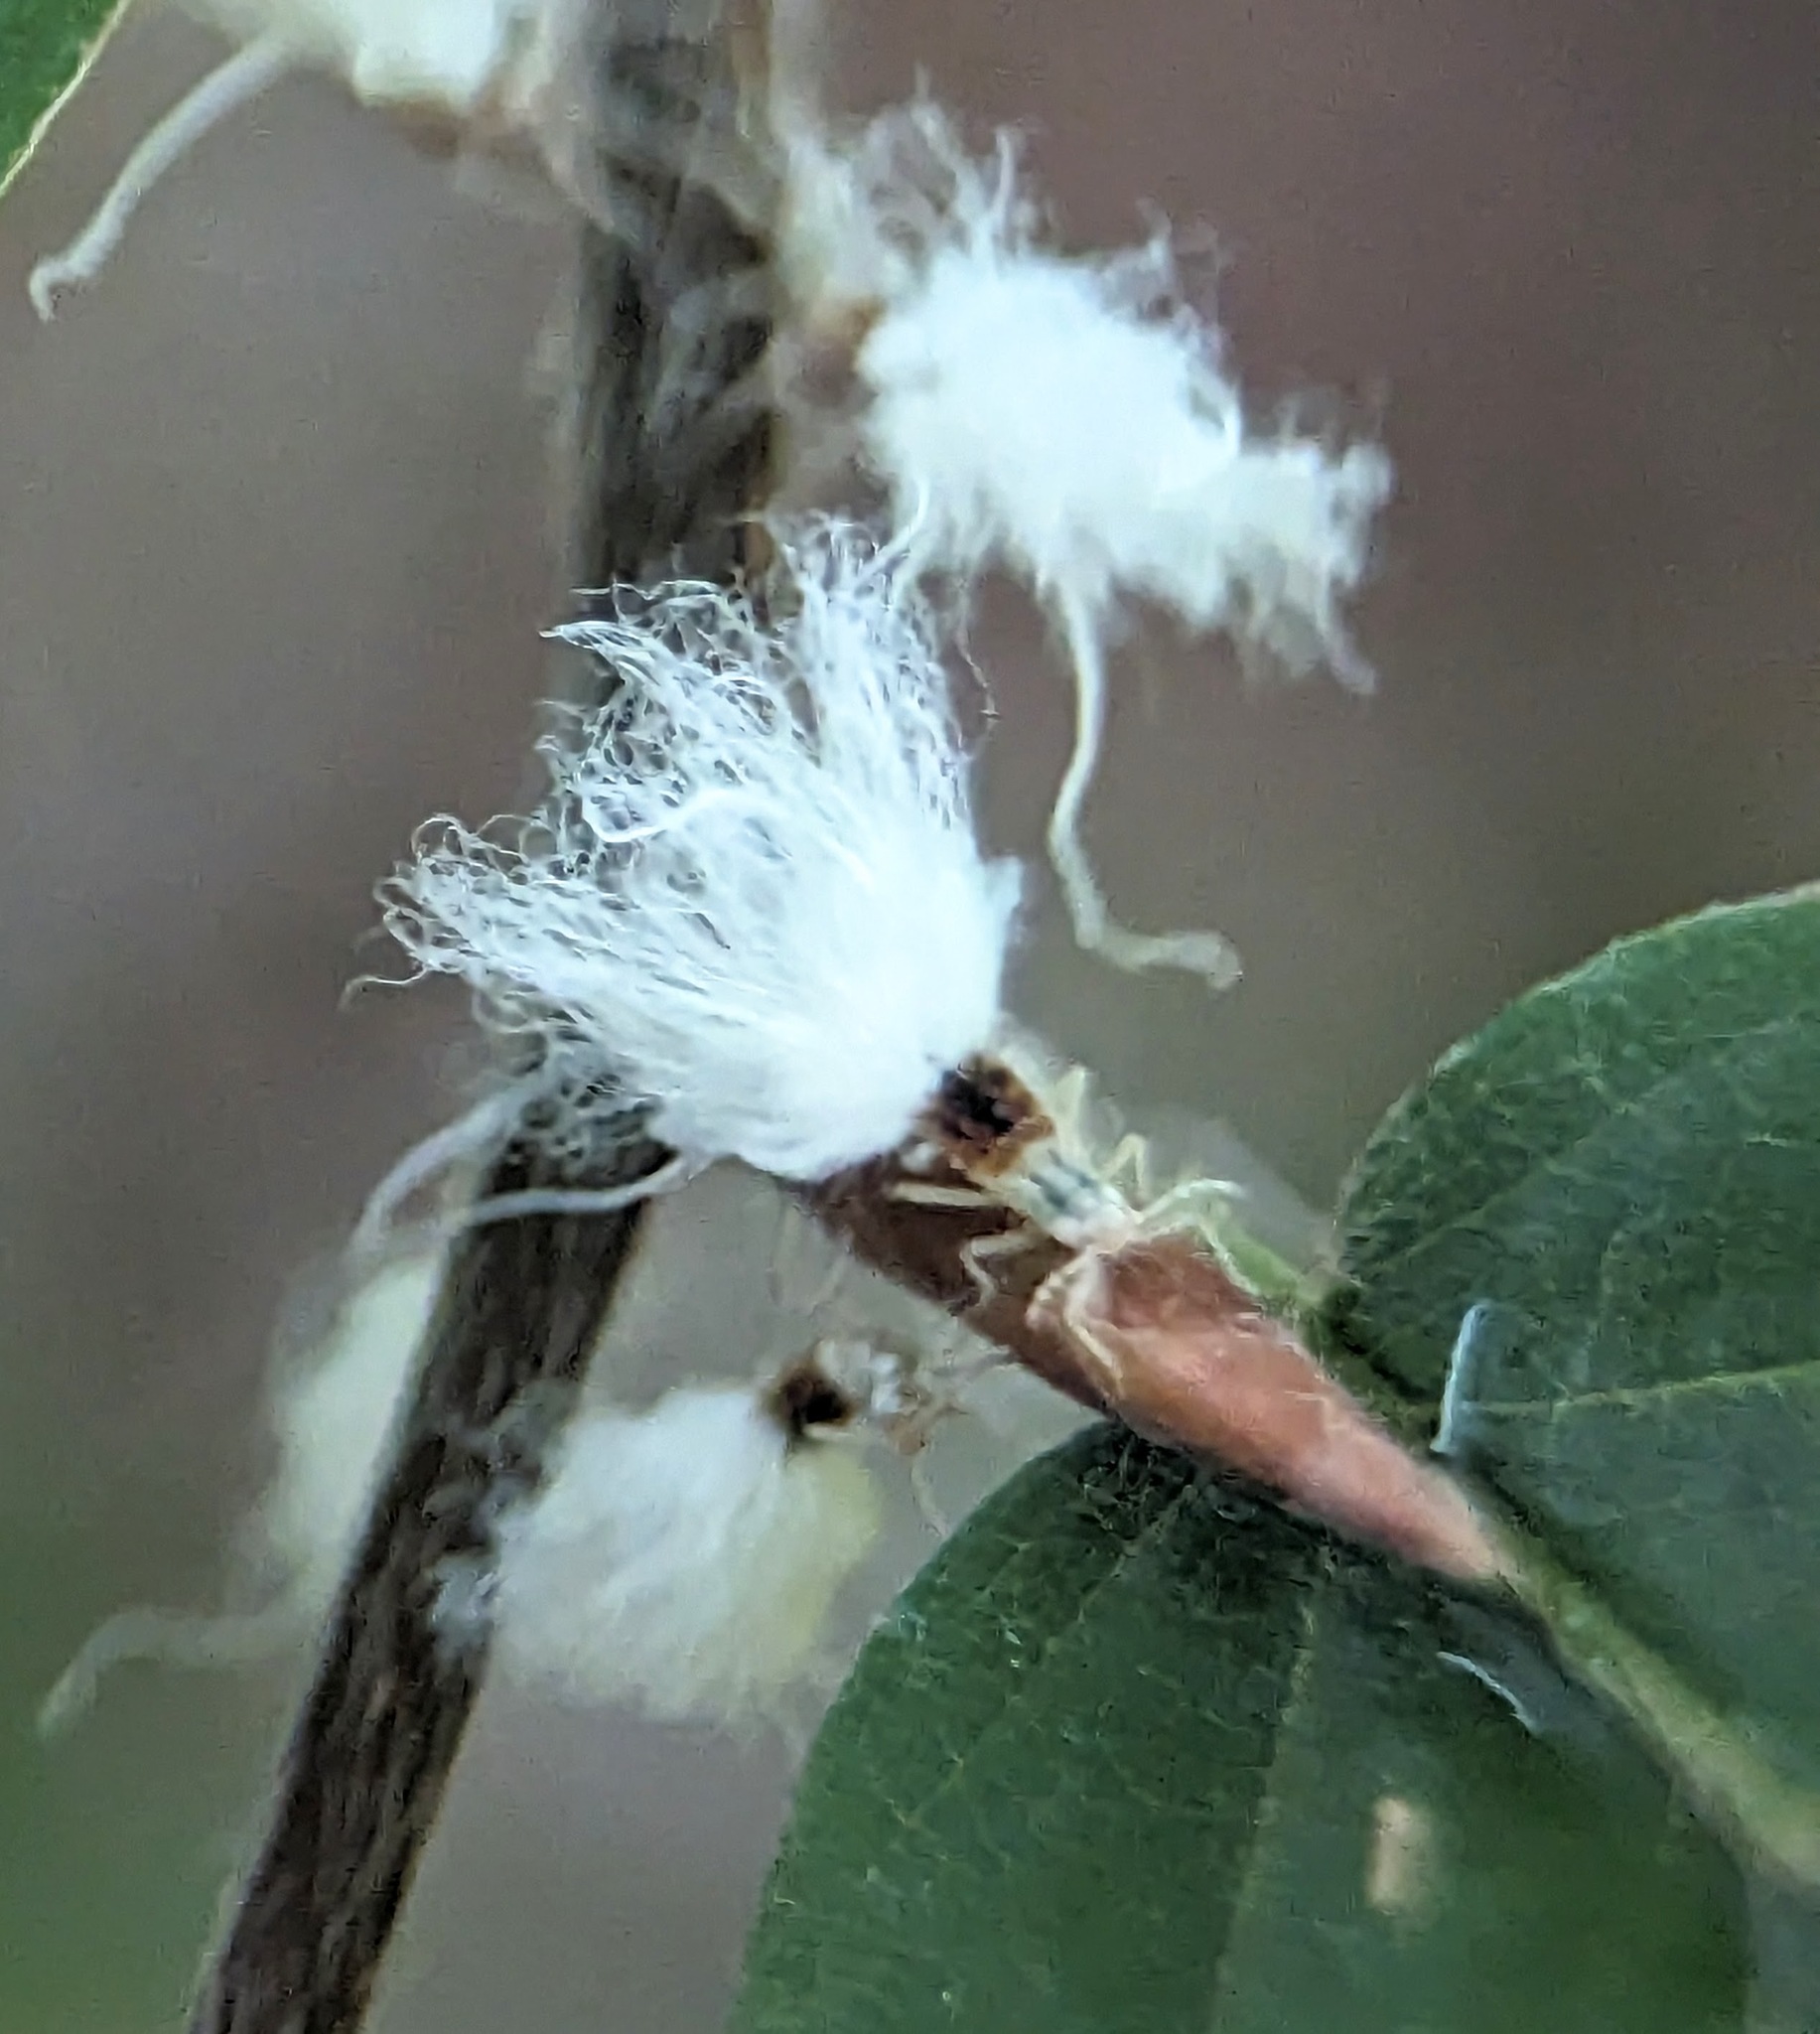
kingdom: Animalia
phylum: Arthropoda
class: Insecta
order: Hemiptera
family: Aphididae
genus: Grylloprociphilus
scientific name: Grylloprociphilus imbricator
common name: Beech blight aphid
